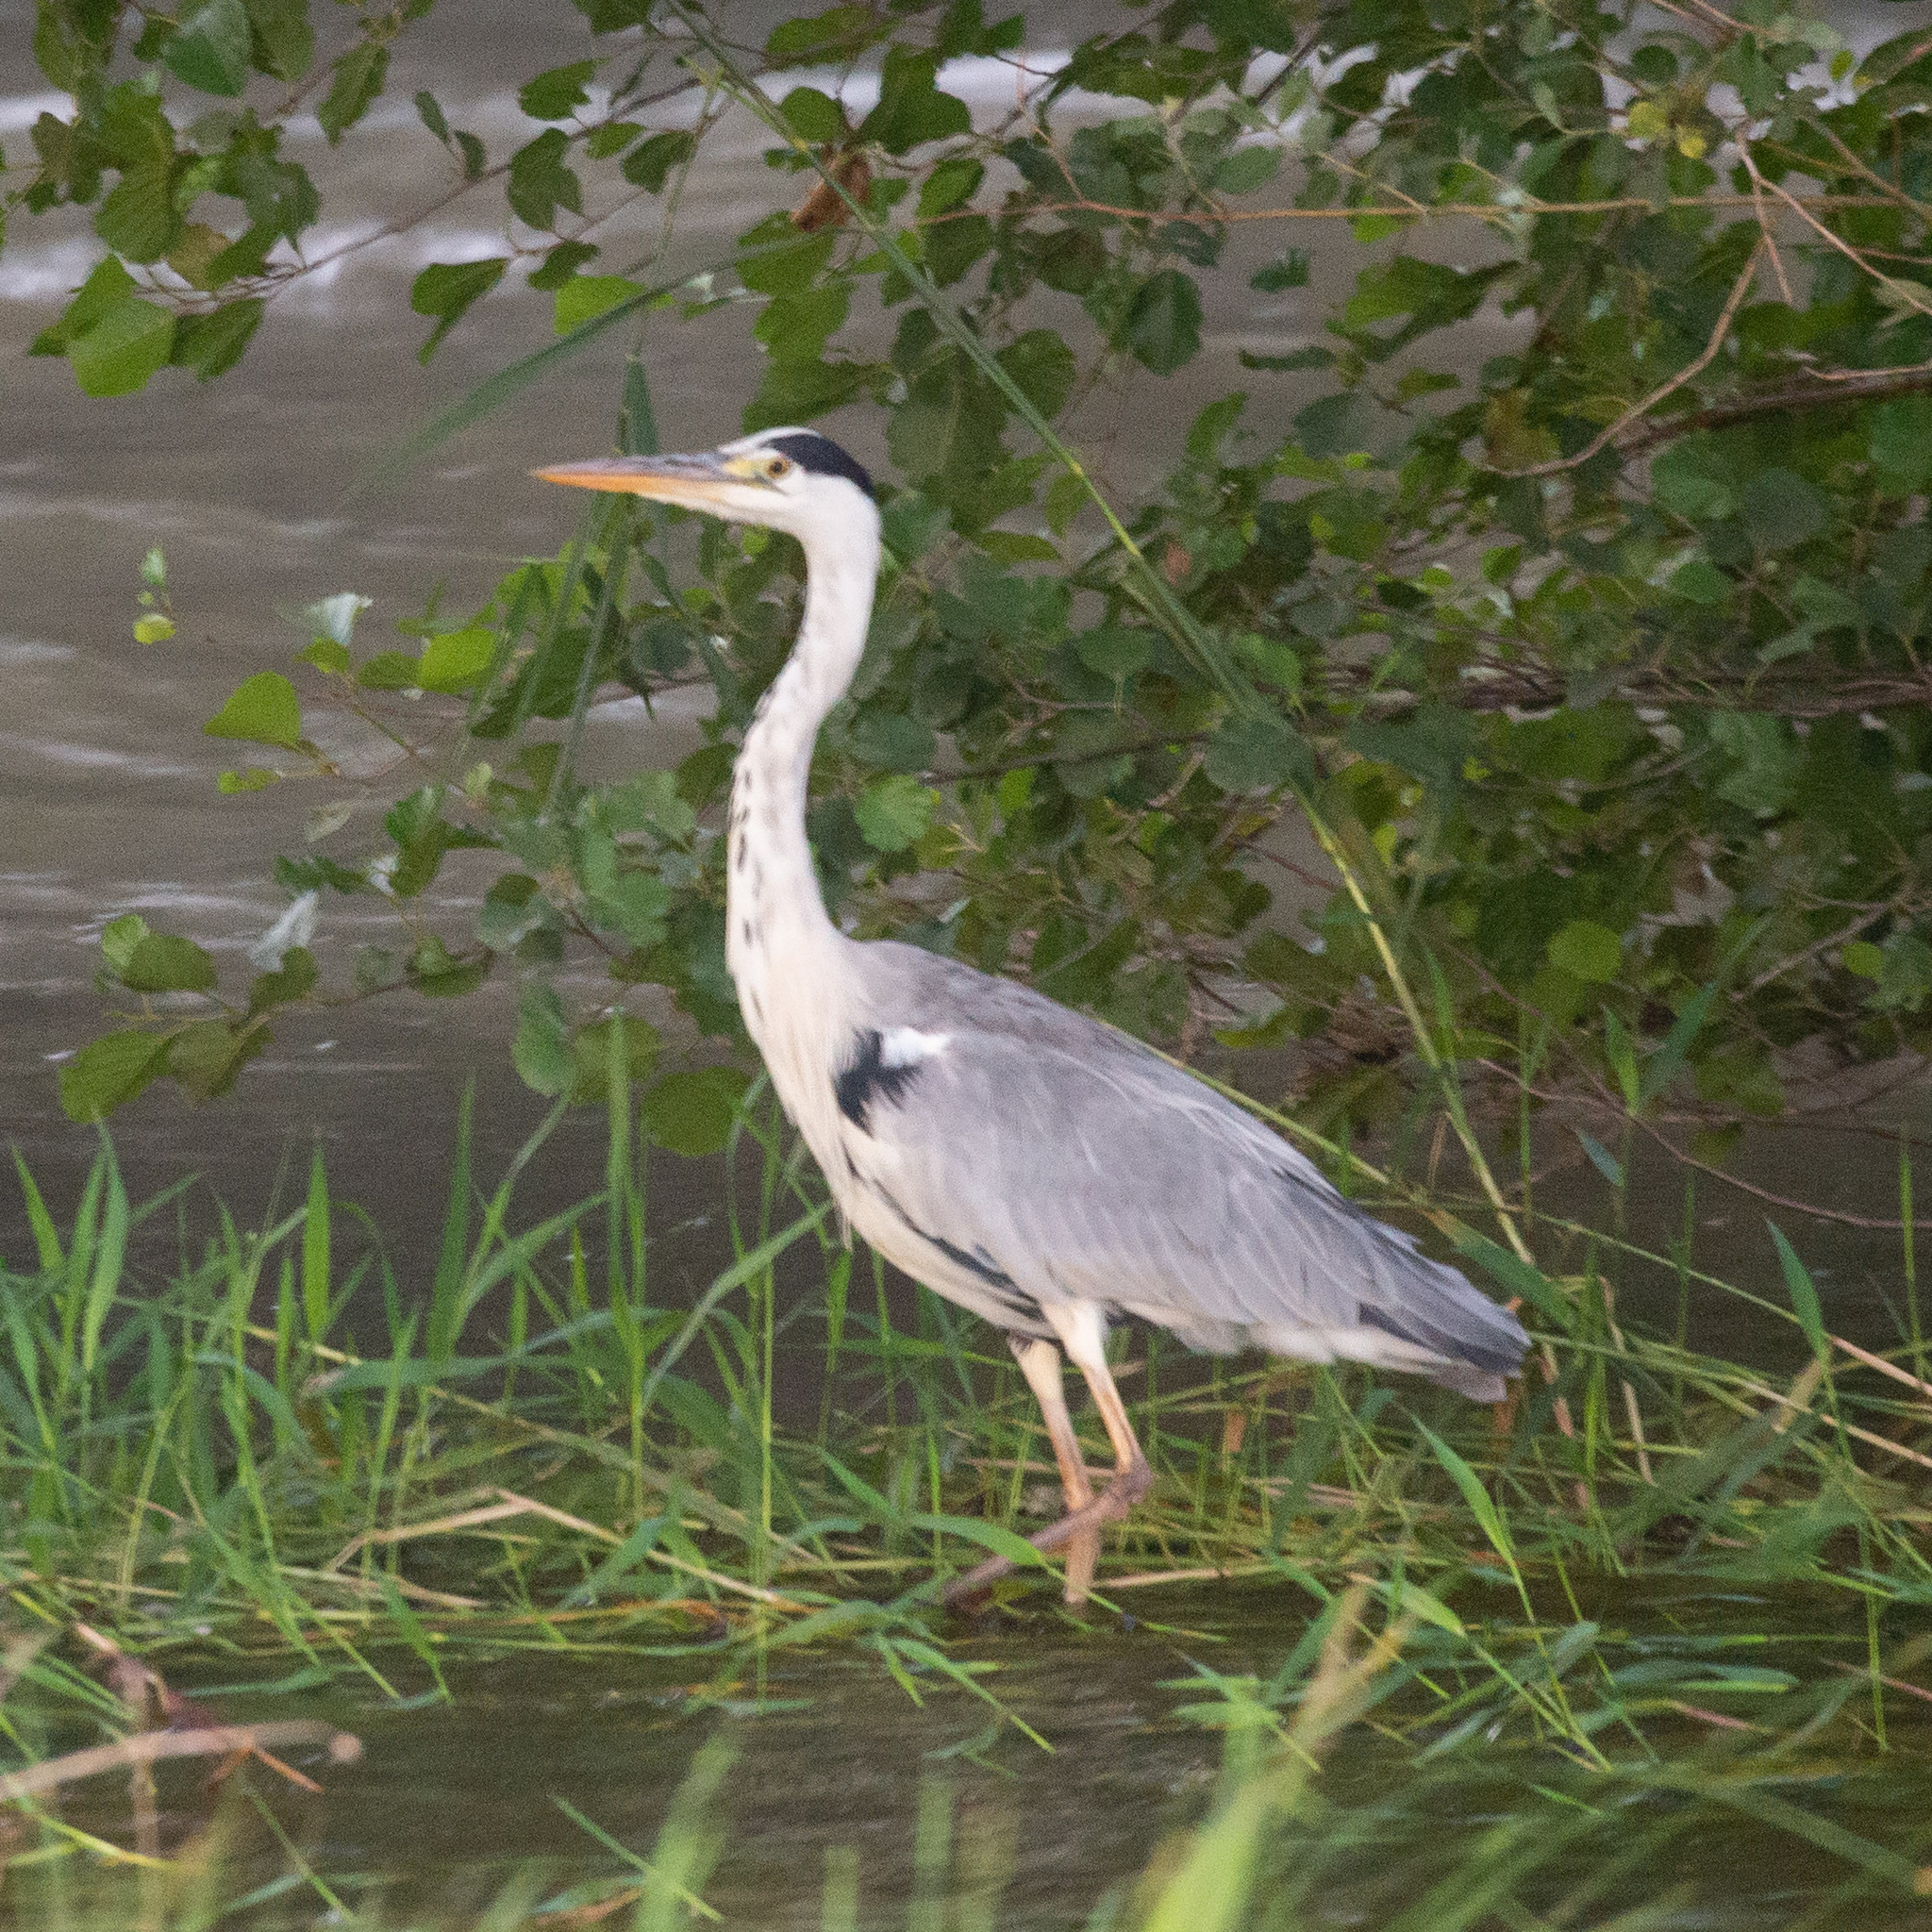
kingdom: Animalia
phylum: Chordata
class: Aves
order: Pelecaniformes
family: Ardeidae
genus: Ardea
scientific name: Ardea cinerea
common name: Grey heron
